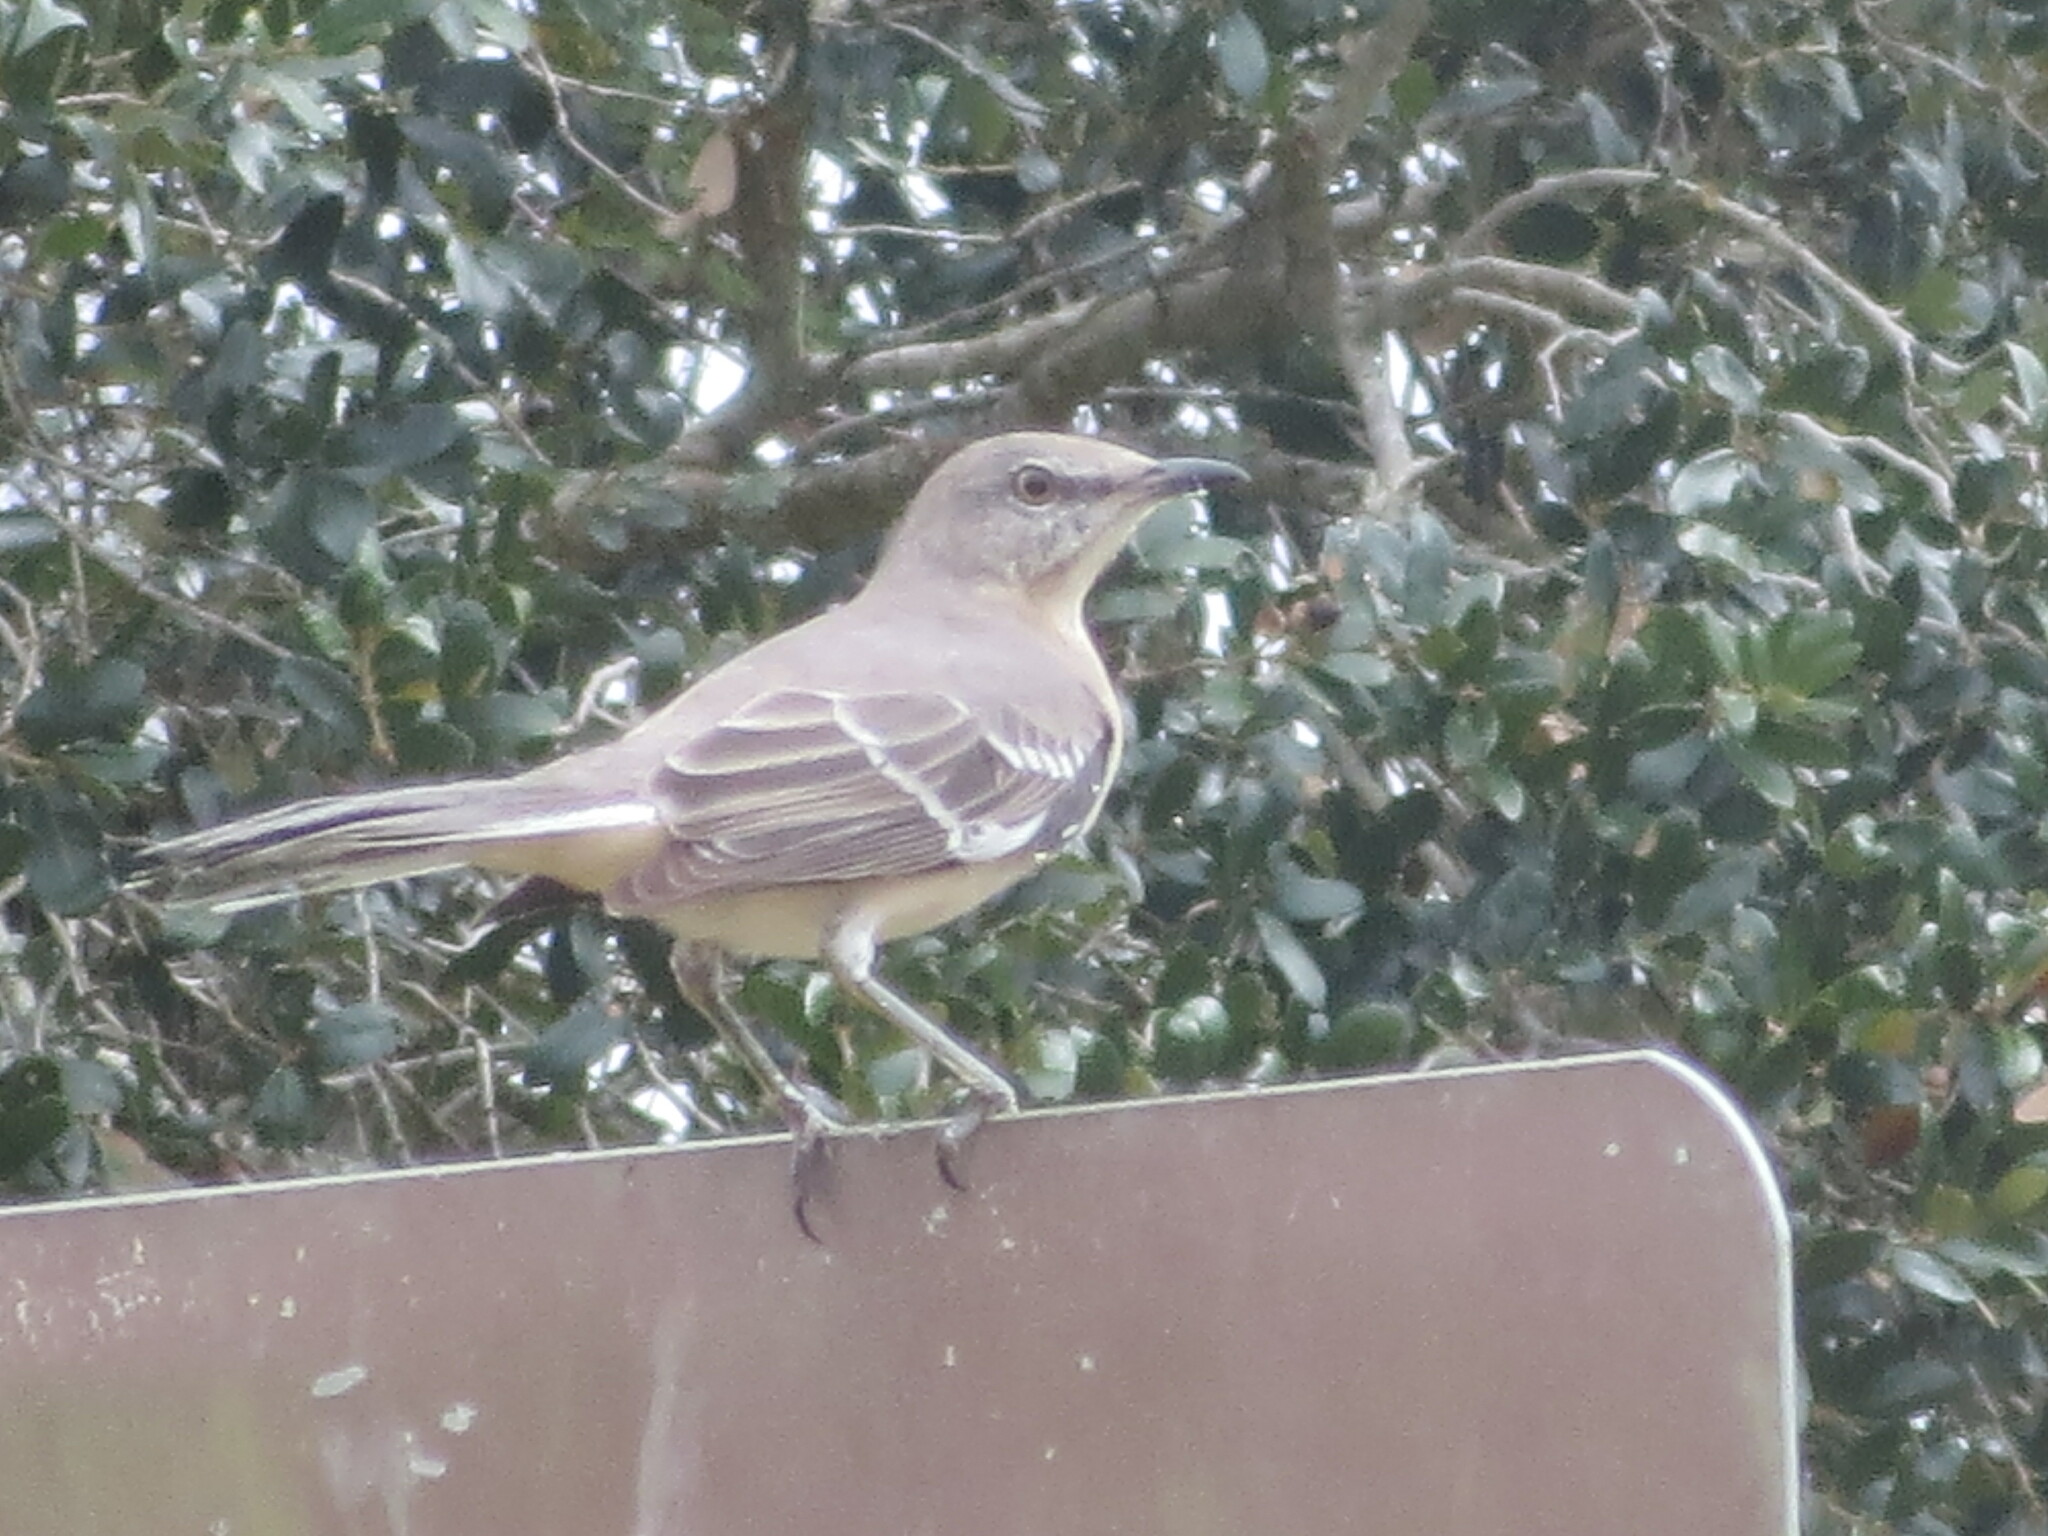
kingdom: Animalia
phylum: Chordata
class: Aves
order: Passeriformes
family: Mimidae
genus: Mimus
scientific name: Mimus polyglottos
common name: Northern mockingbird
